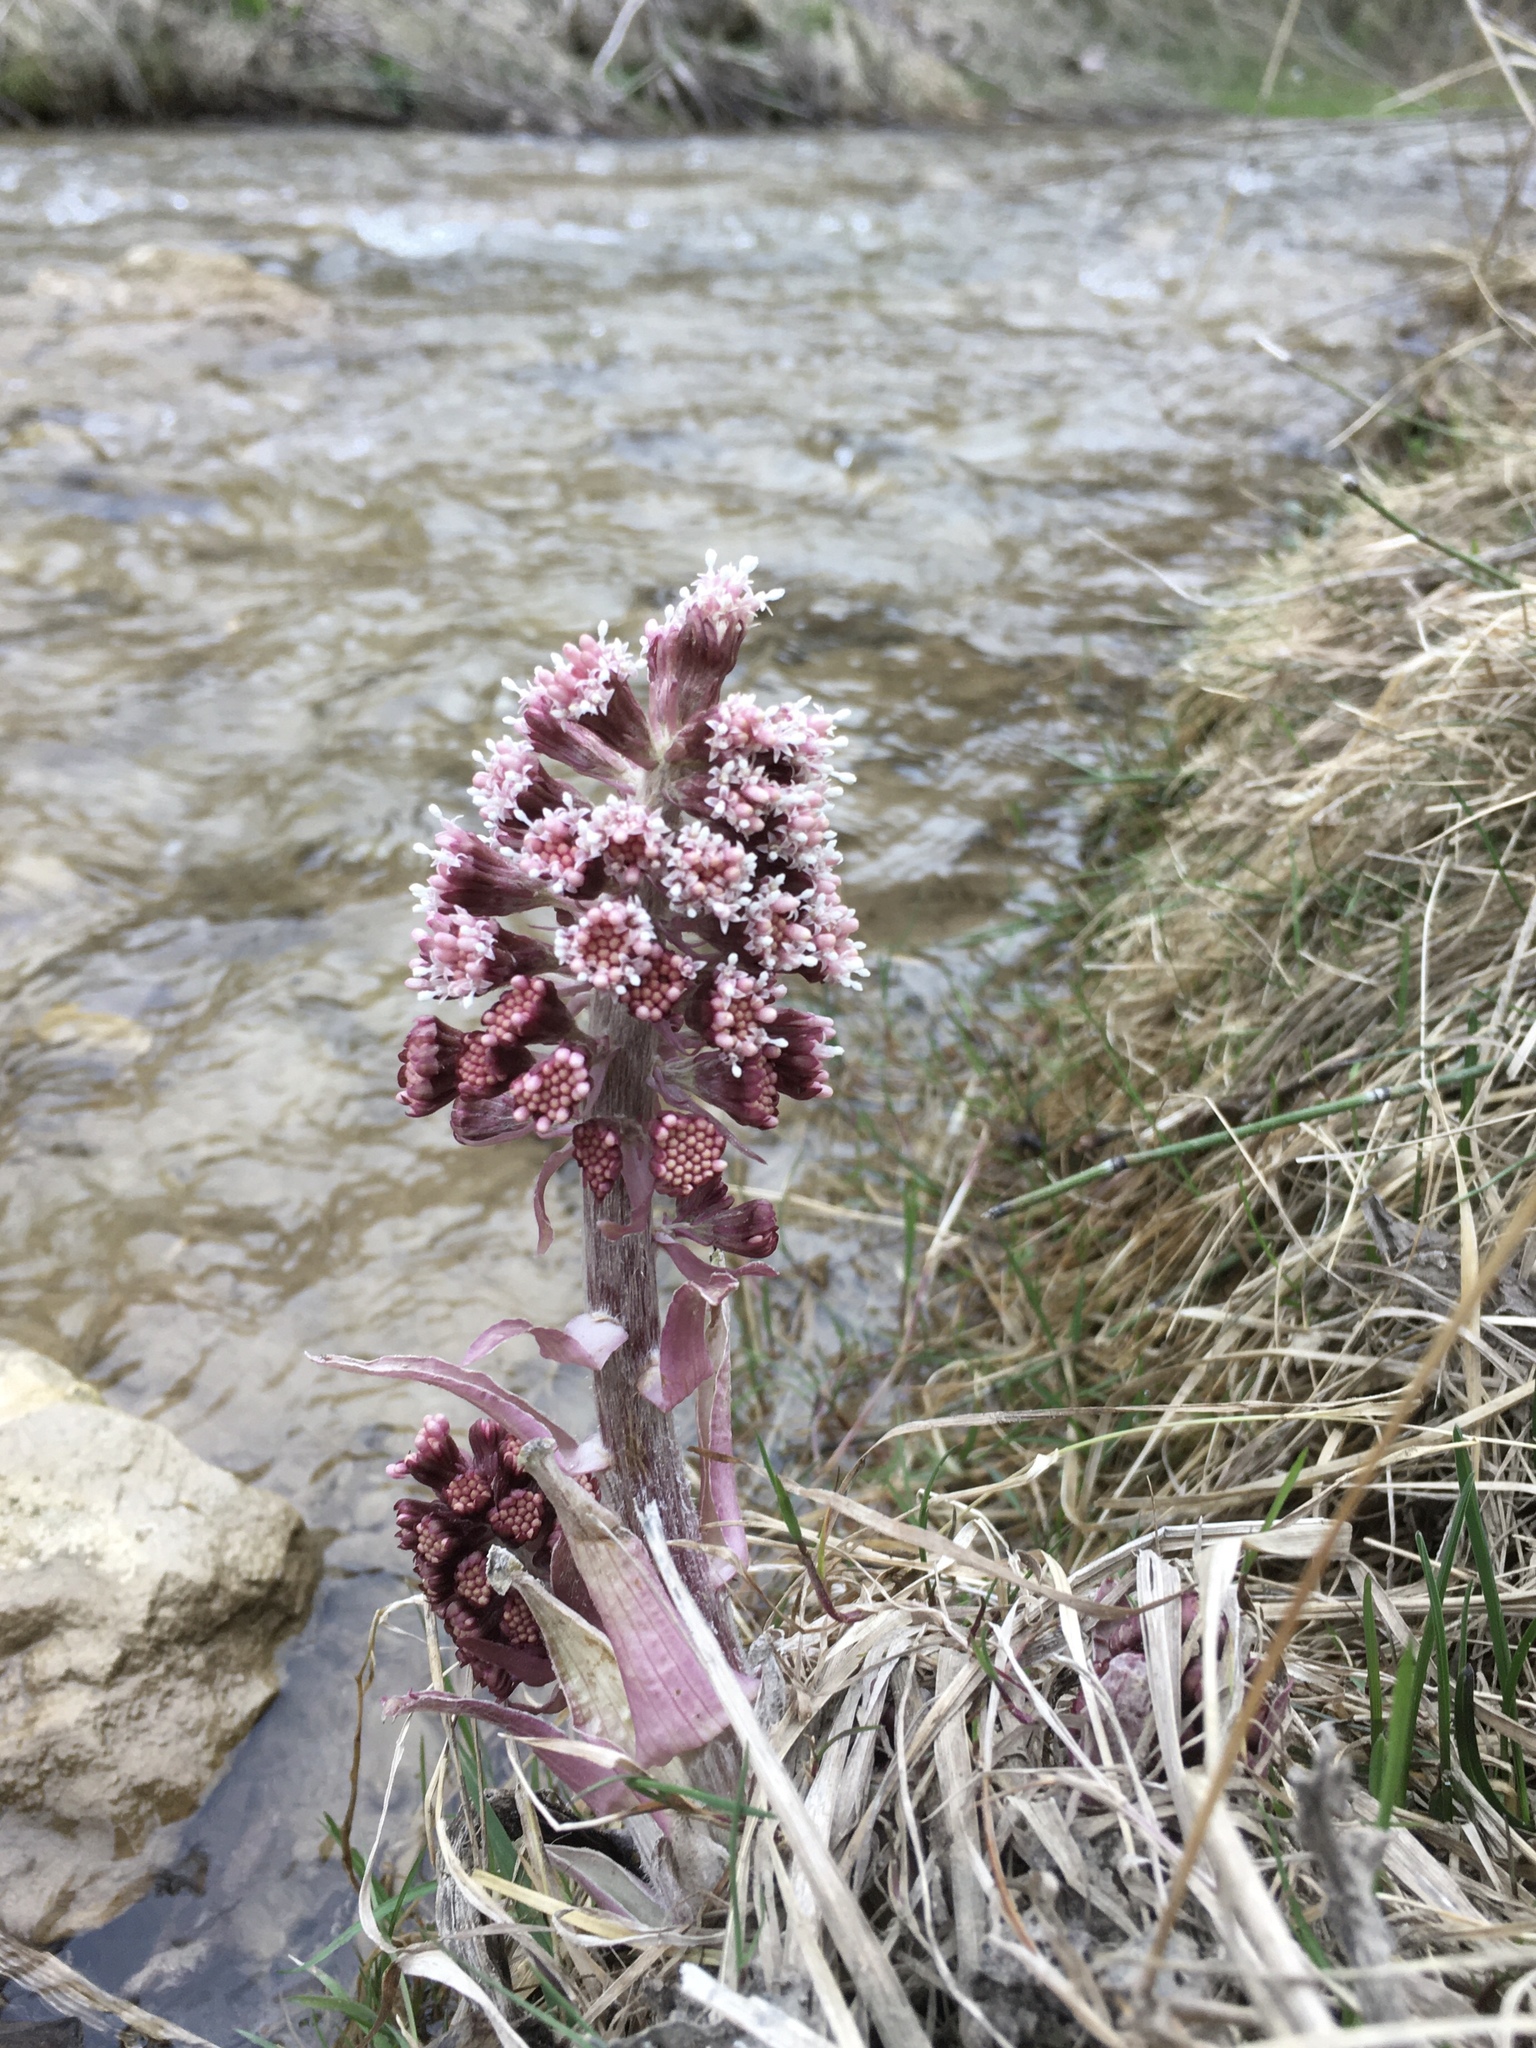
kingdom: Plantae
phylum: Tracheophyta
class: Magnoliopsida
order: Asterales
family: Asteraceae
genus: Petasites
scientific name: Petasites hybridus
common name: Butterbur
